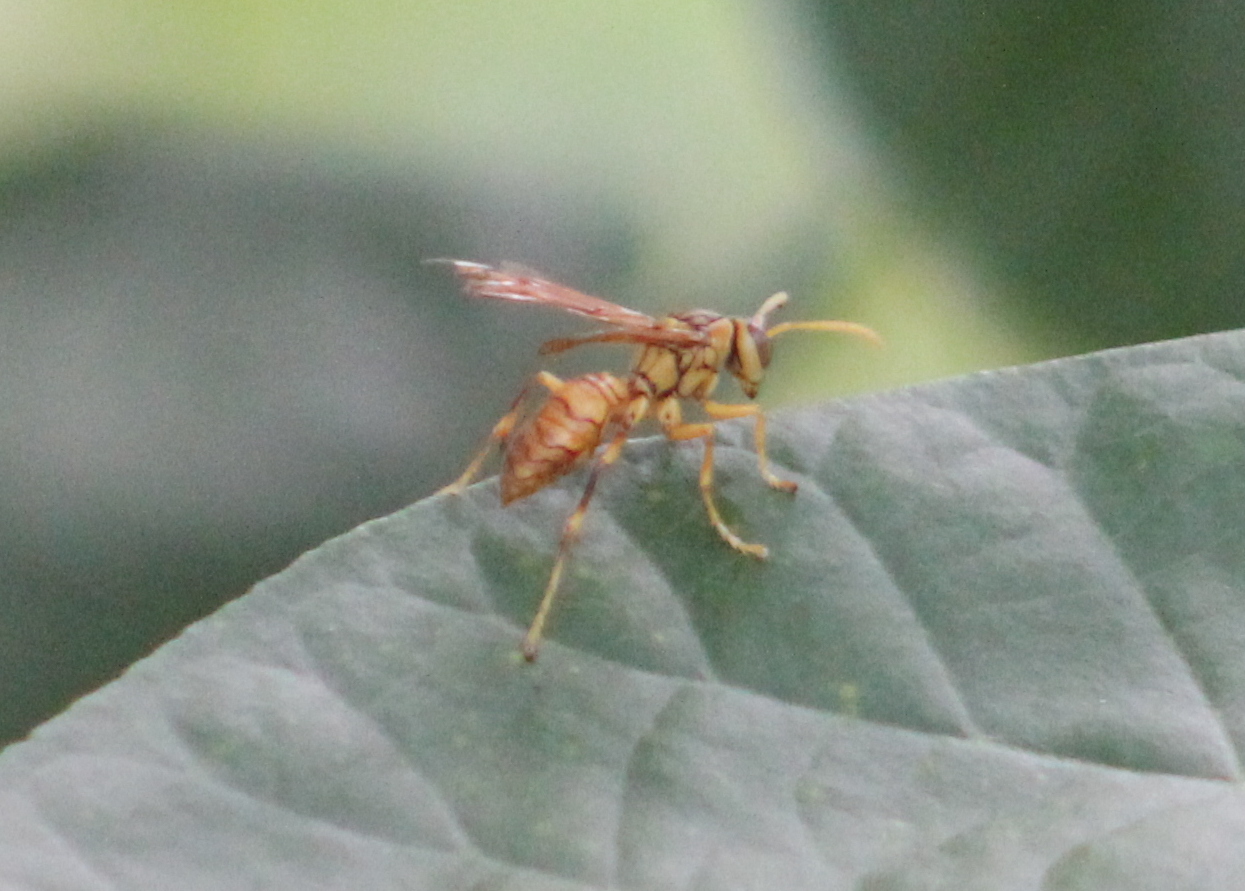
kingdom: Animalia
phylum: Arthropoda
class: Insecta
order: Hymenoptera
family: Eumenidae
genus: Polistes
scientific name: Polistes olivaceus
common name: Paper wasp
